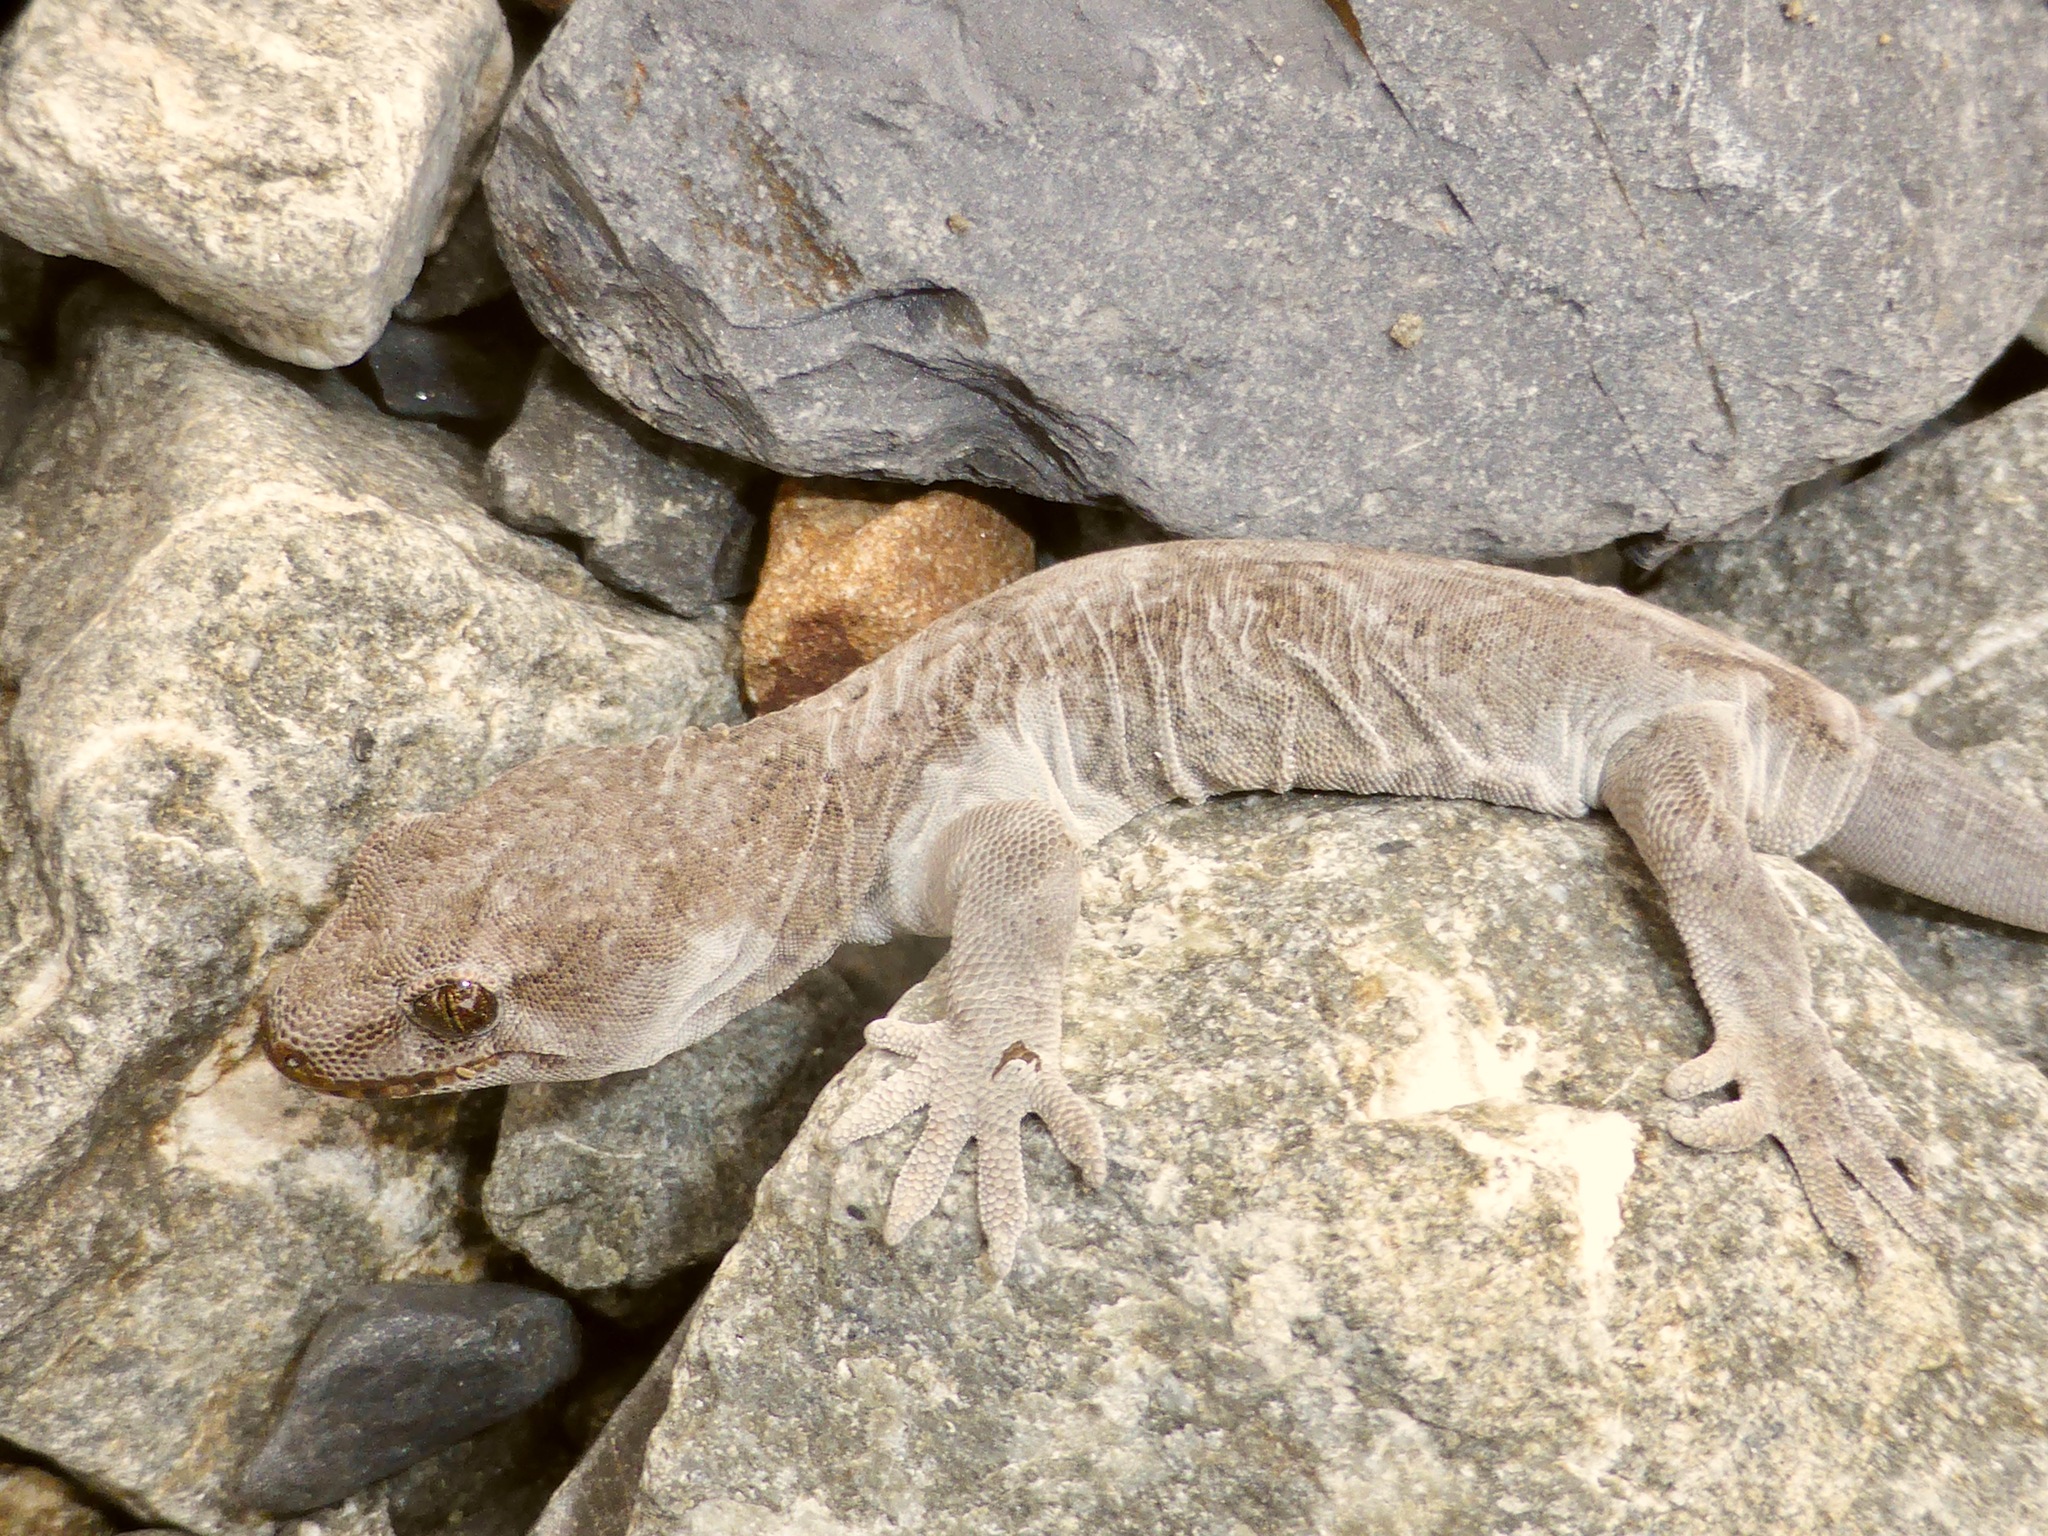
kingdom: Animalia
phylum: Chordata
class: Squamata
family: Diplodactylidae
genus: Woodworthia
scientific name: Woodworthia
